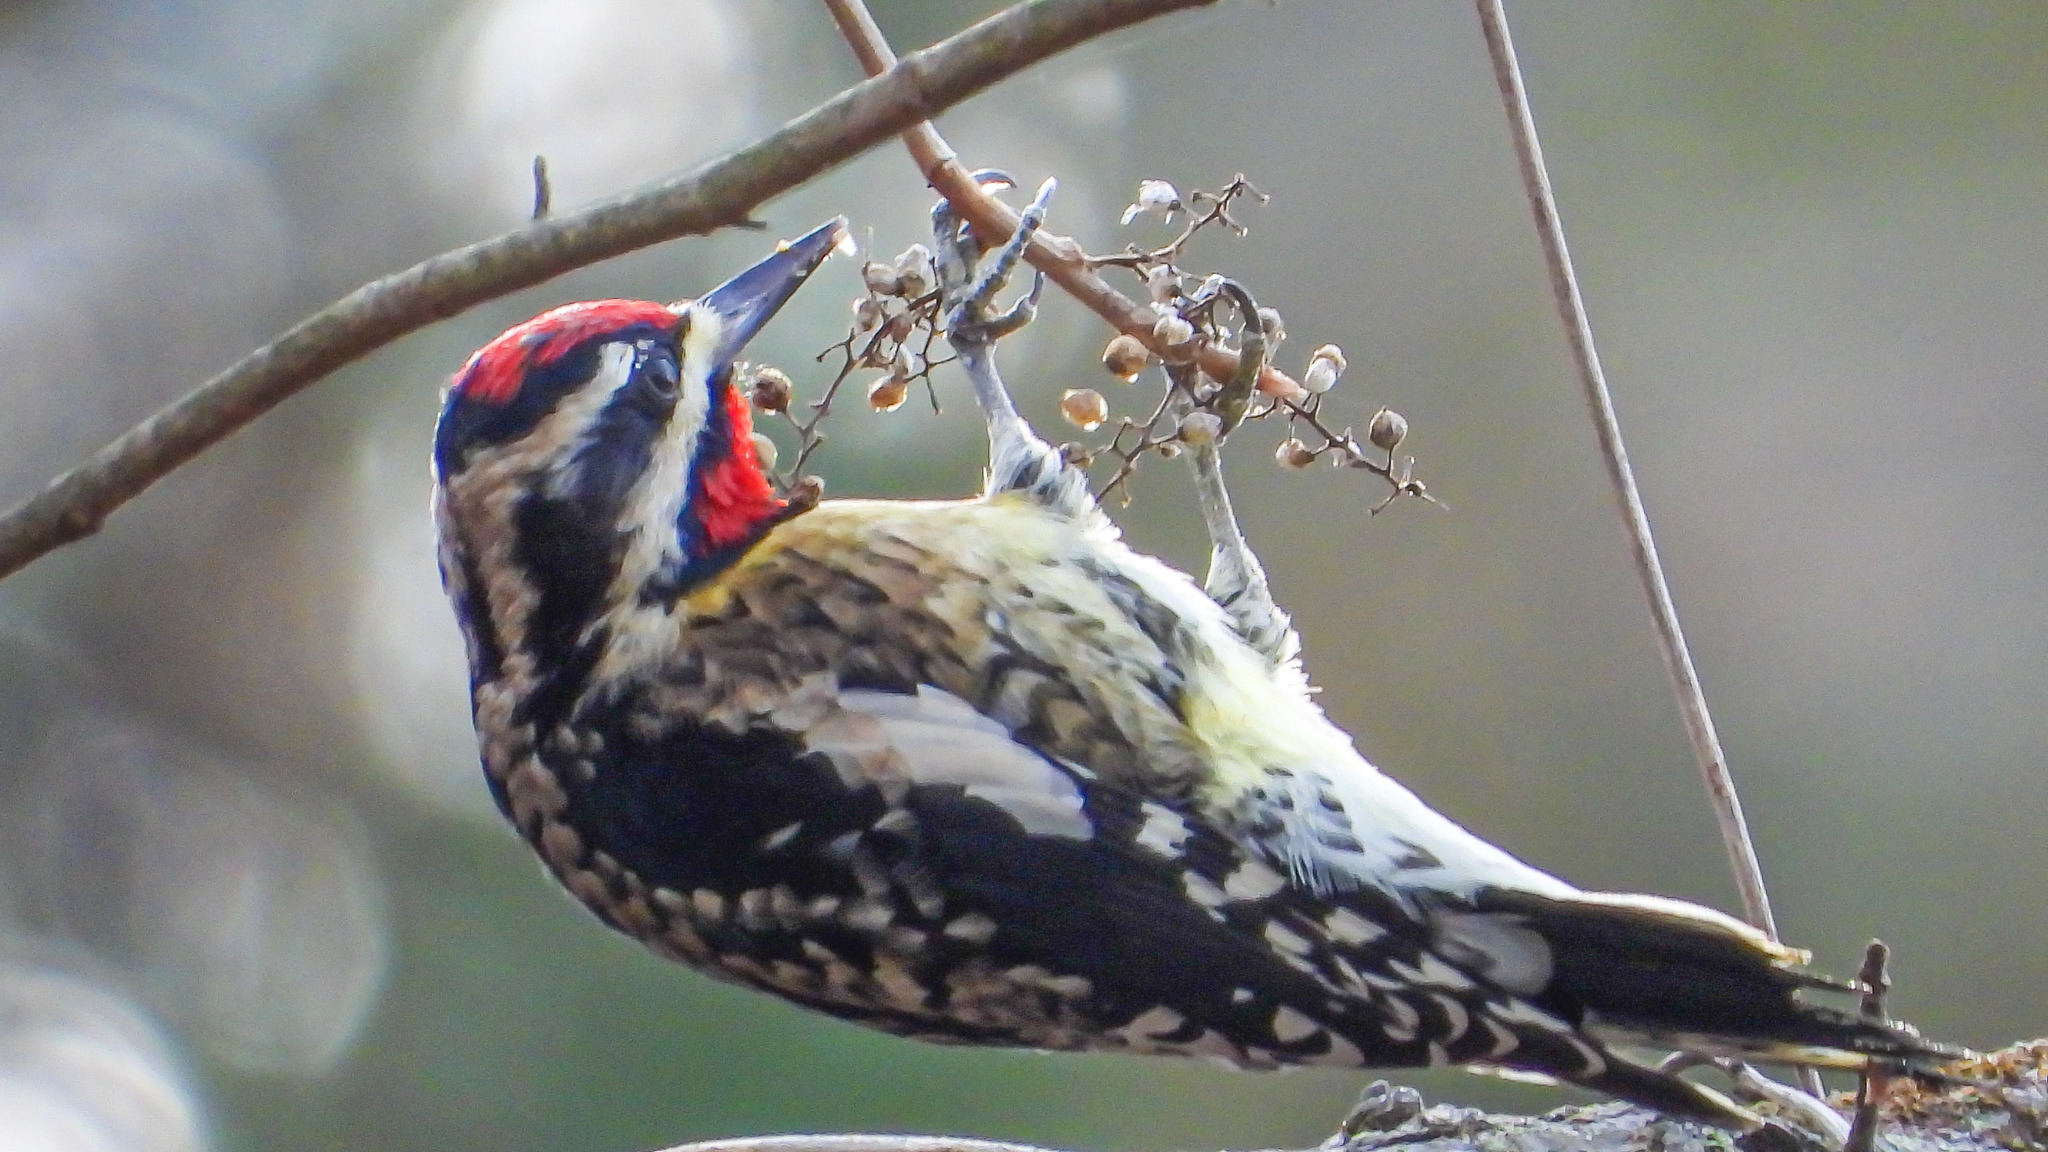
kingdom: Animalia
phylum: Chordata
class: Aves
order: Piciformes
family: Picidae
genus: Sphyrapicus
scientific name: Sphyrapicus varius
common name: Yellow-bellied sapsucker
